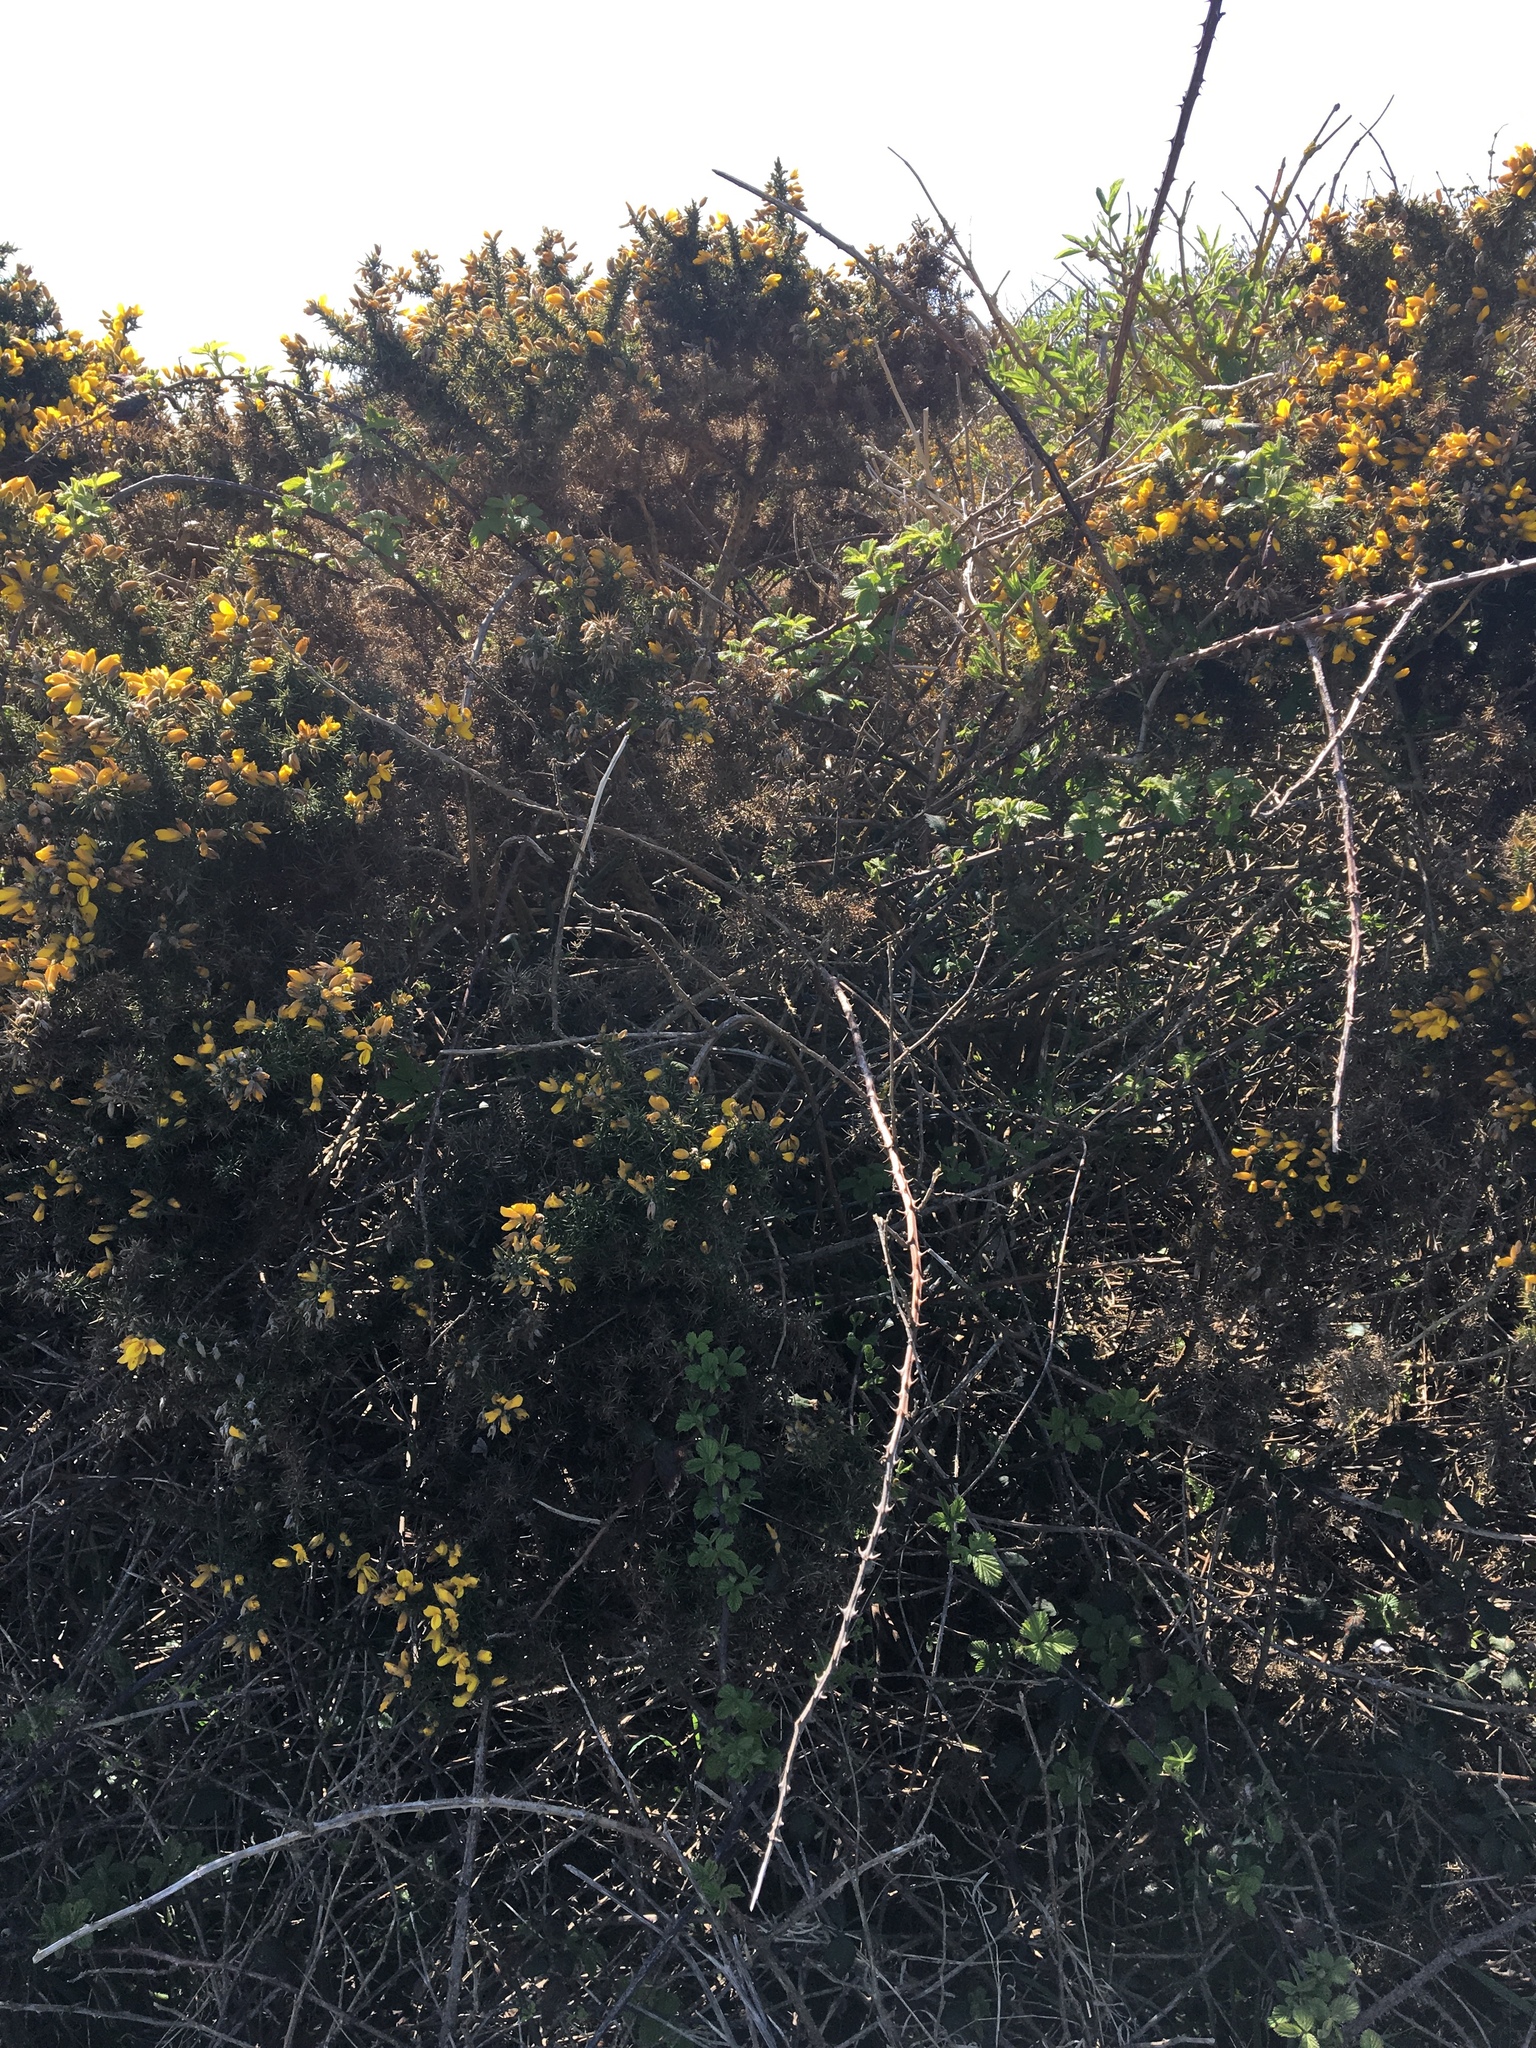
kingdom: Plantae
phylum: Tracheophyta
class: Magnoliopsida
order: Fabales
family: Fabaceae
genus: Ulex
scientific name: Ulex europaeus
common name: Common gorse
